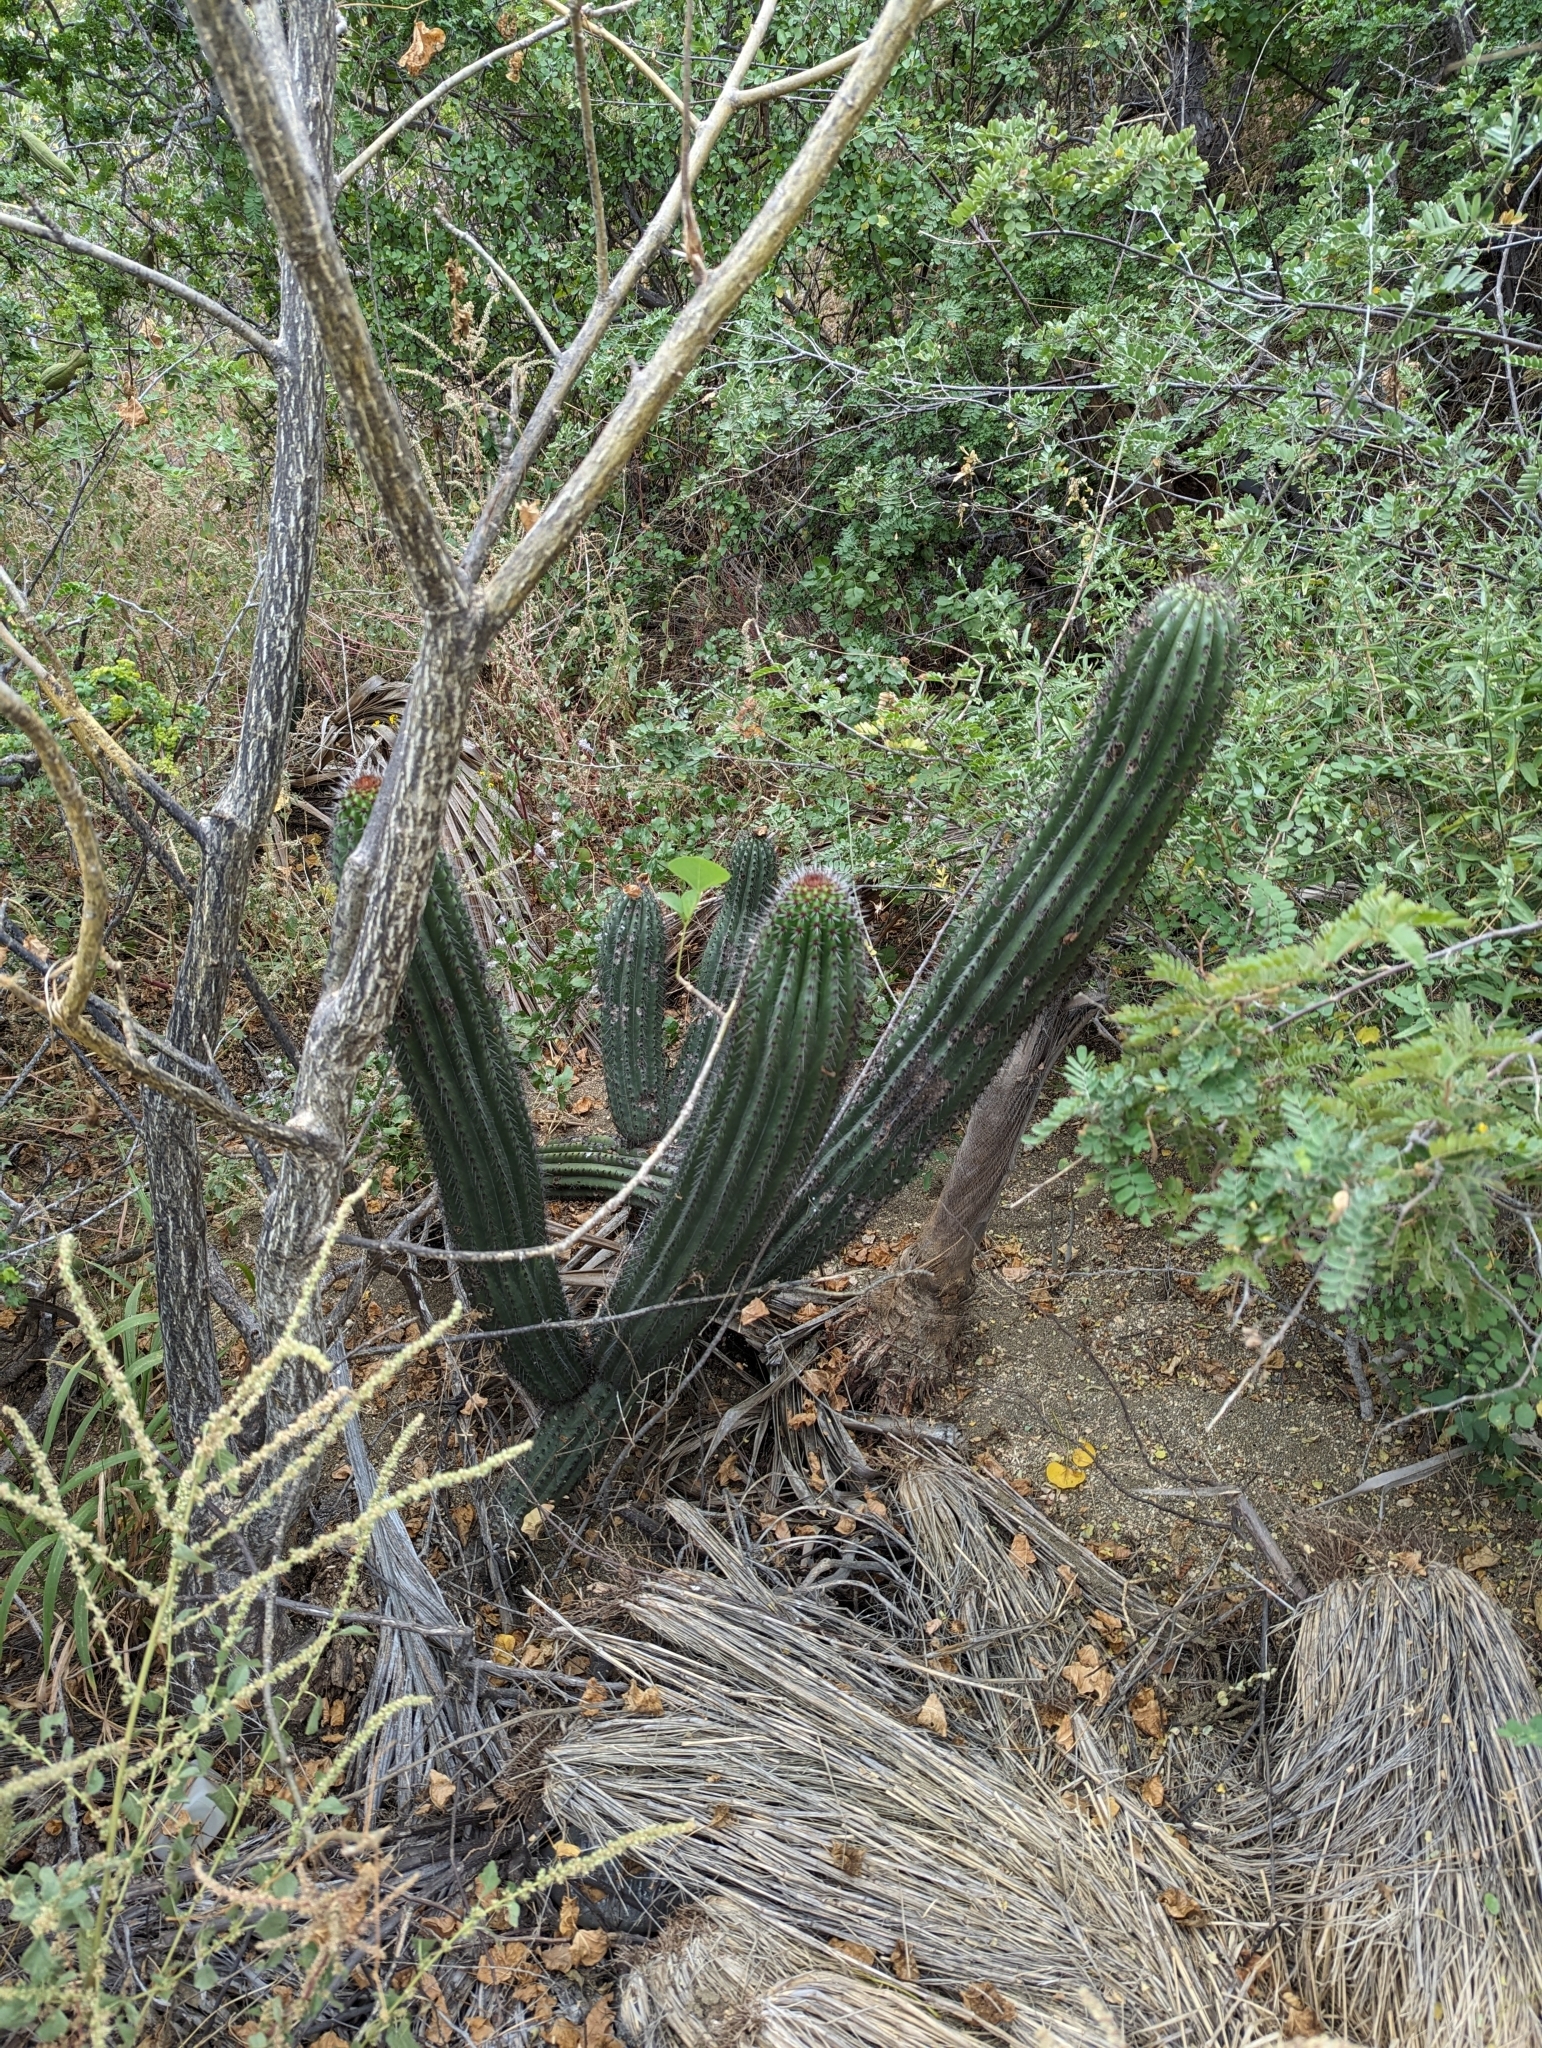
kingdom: Plantae
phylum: Tracheophyta
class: Magnoliopsida
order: Caryophyllales
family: Cactaceae
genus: Stenocereus
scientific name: Stenocereus thurberi
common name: Organ pipe cactus
